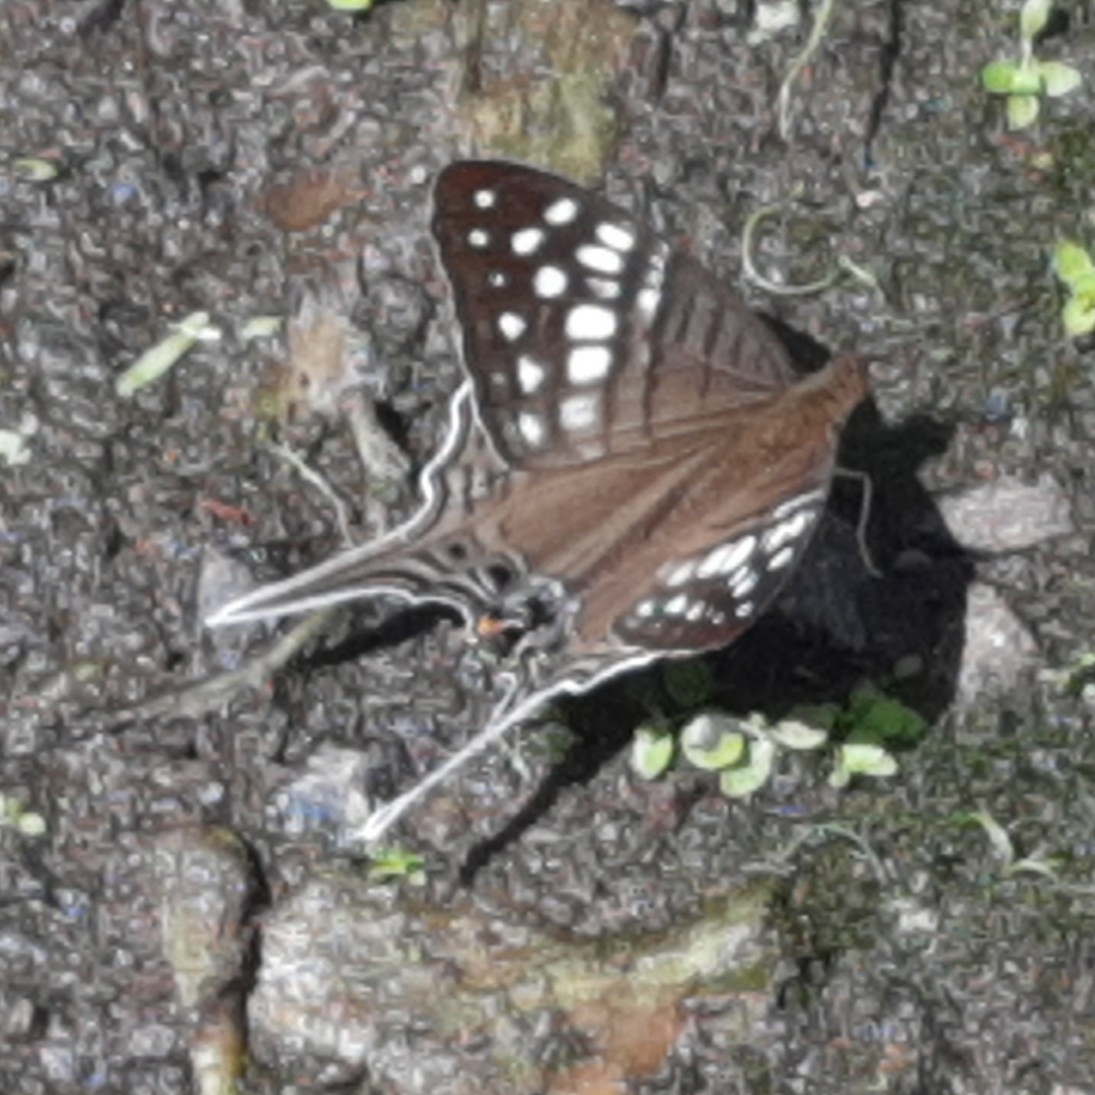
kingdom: Animalia
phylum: Arthropoda
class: Insecta
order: Lepidoptera
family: Nymphalidae
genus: Marpesia
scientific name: Marpesia merops
